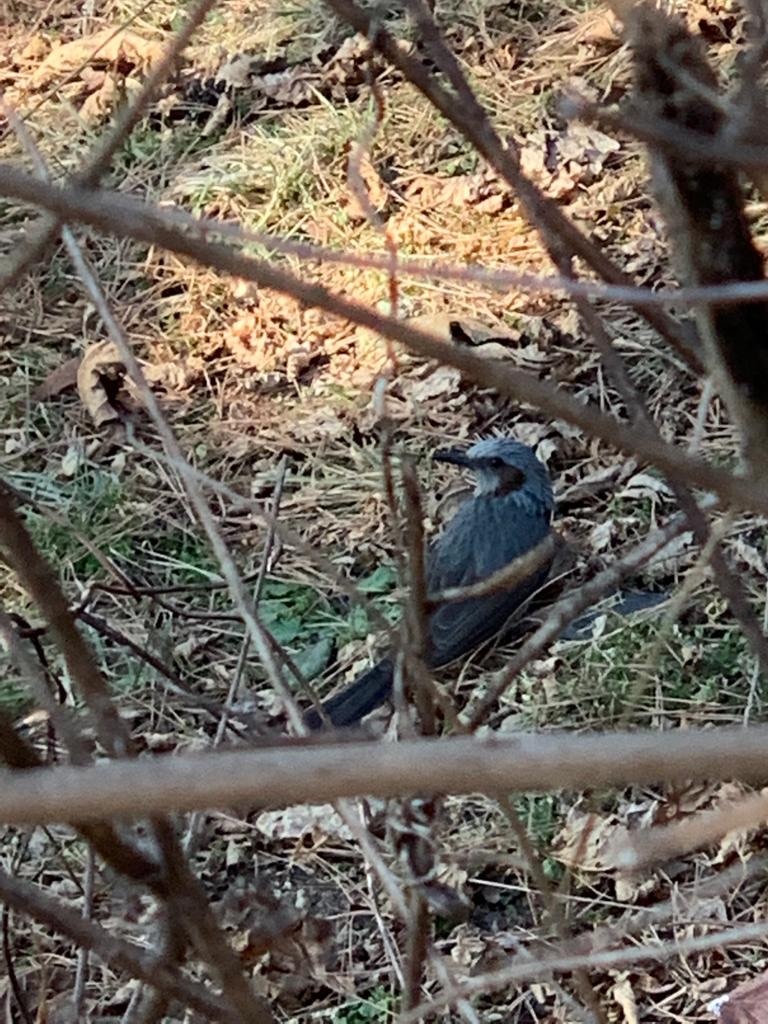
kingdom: Animalia
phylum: Chordata
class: Aves
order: Passeriformes
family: Pycnonotidae
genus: Hypsipetes
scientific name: Hypsipetes amaurotis
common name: Brown-eared bulbul
